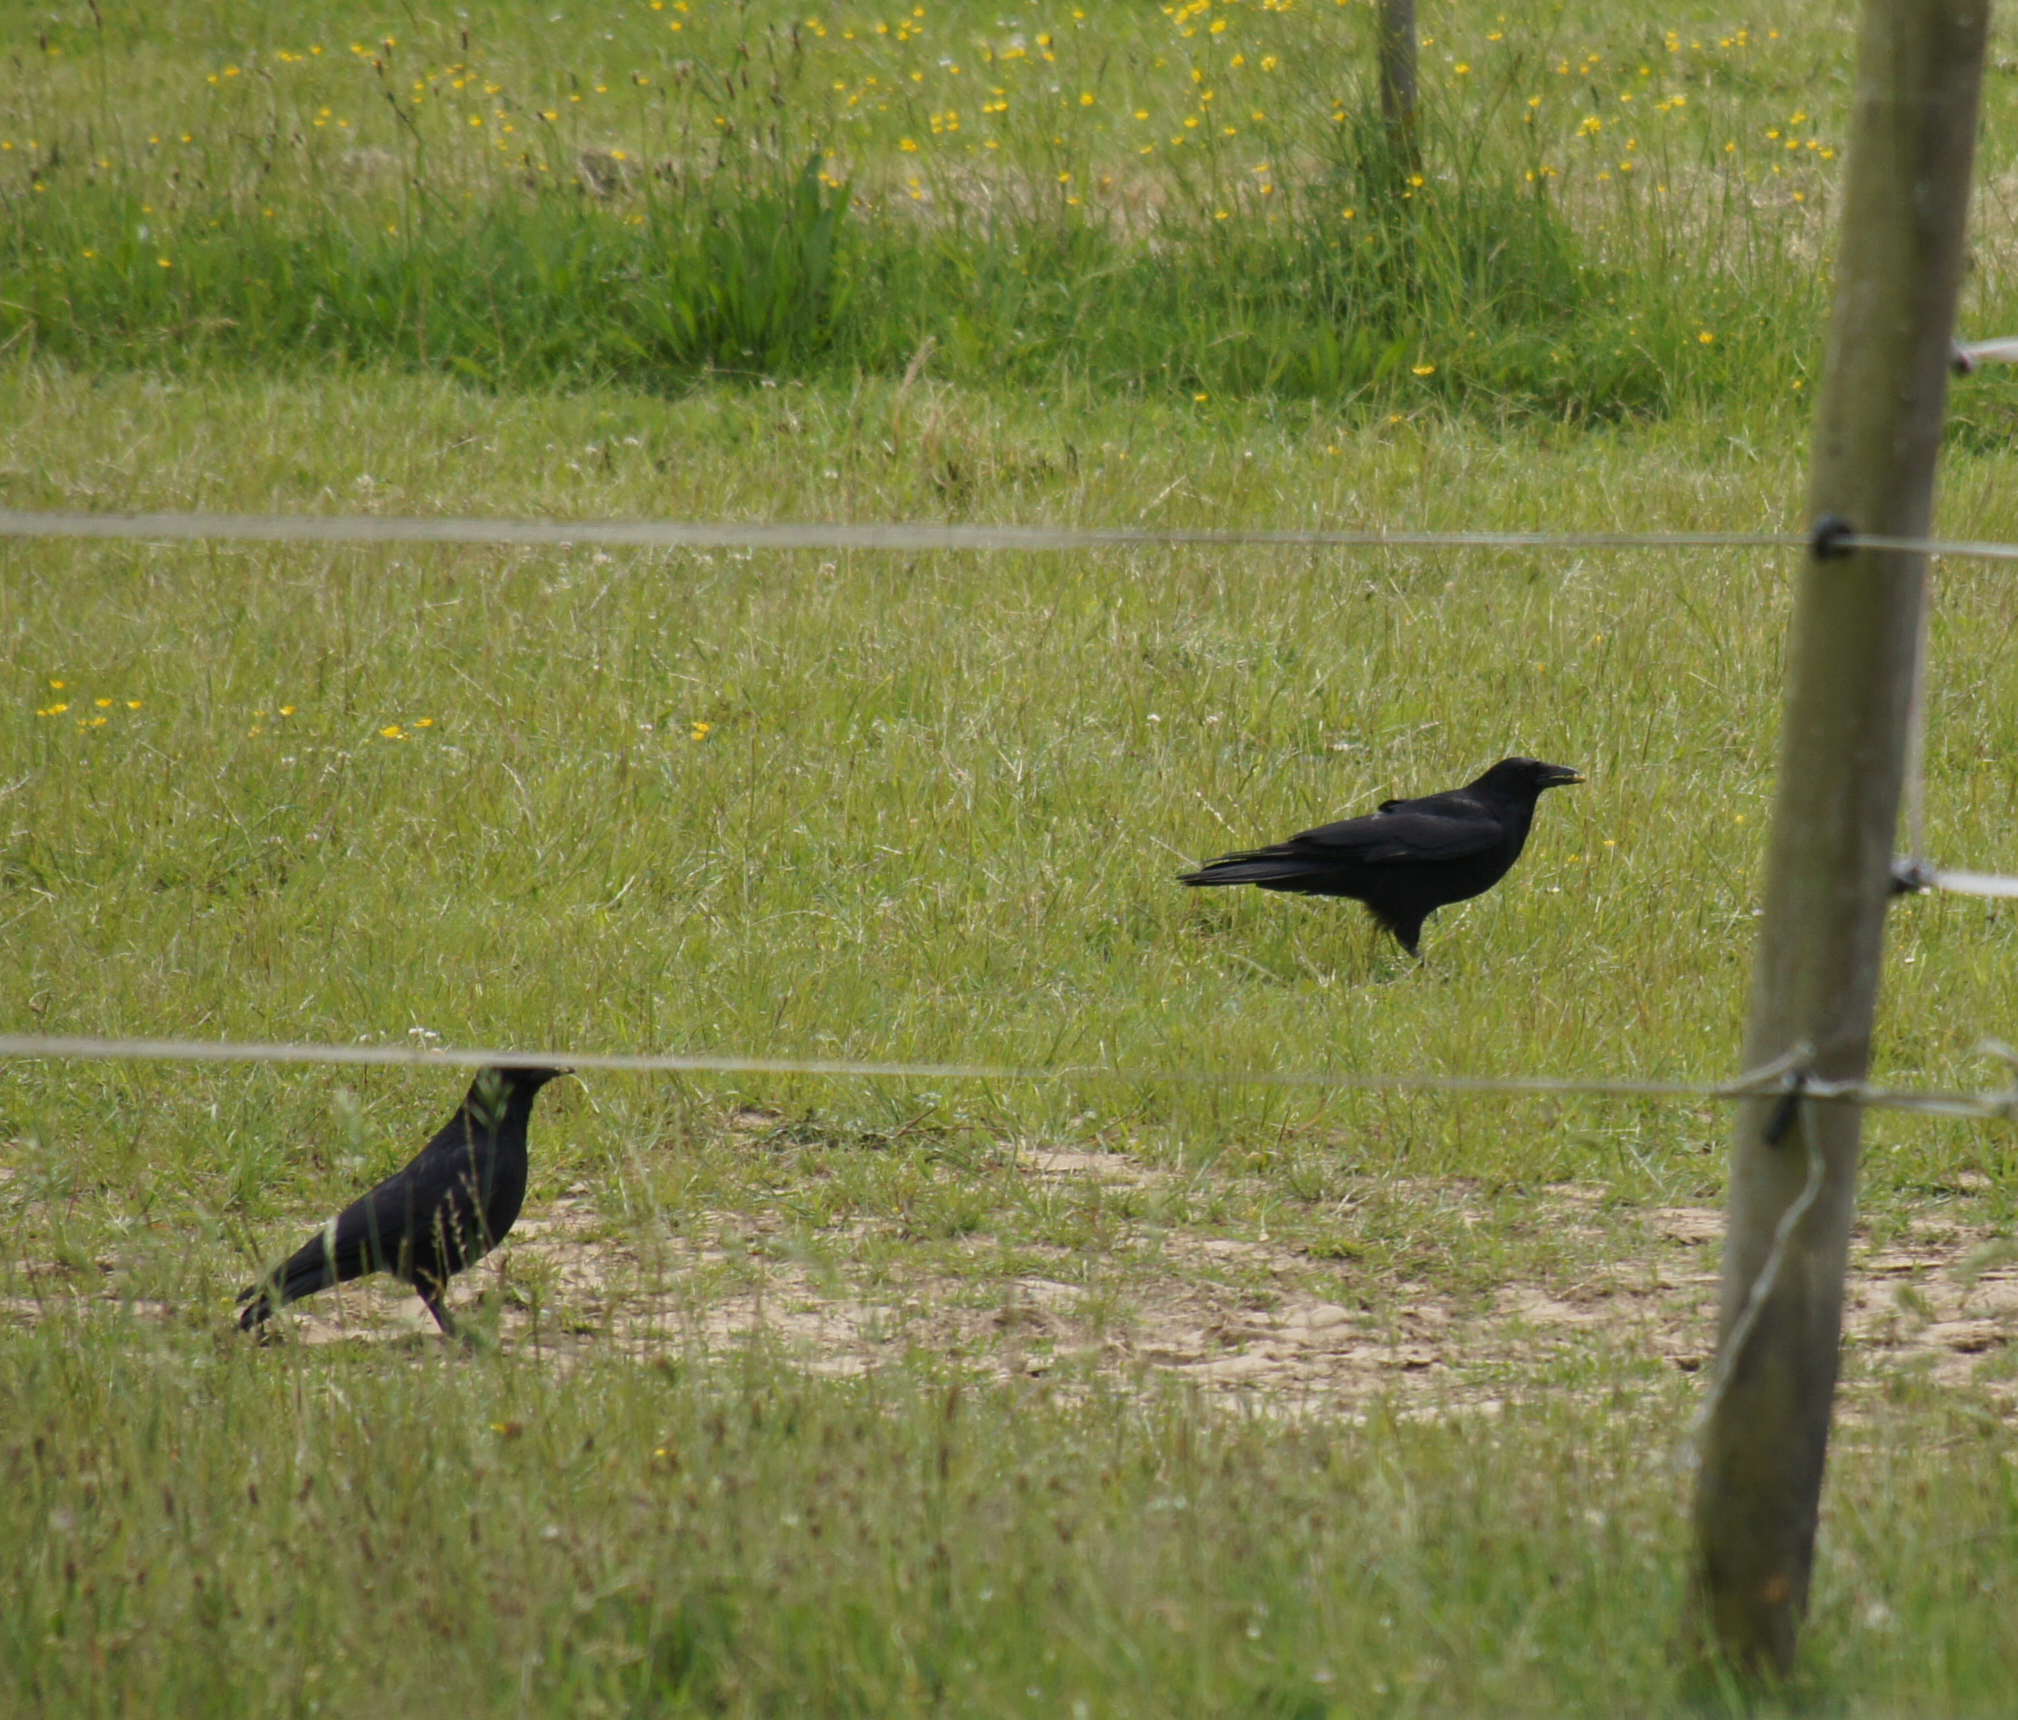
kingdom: Animalia
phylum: Chordata
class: Aves
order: Passeriformes
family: Corvidae
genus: Corvus
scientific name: Corvus corone
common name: Carrion crow
